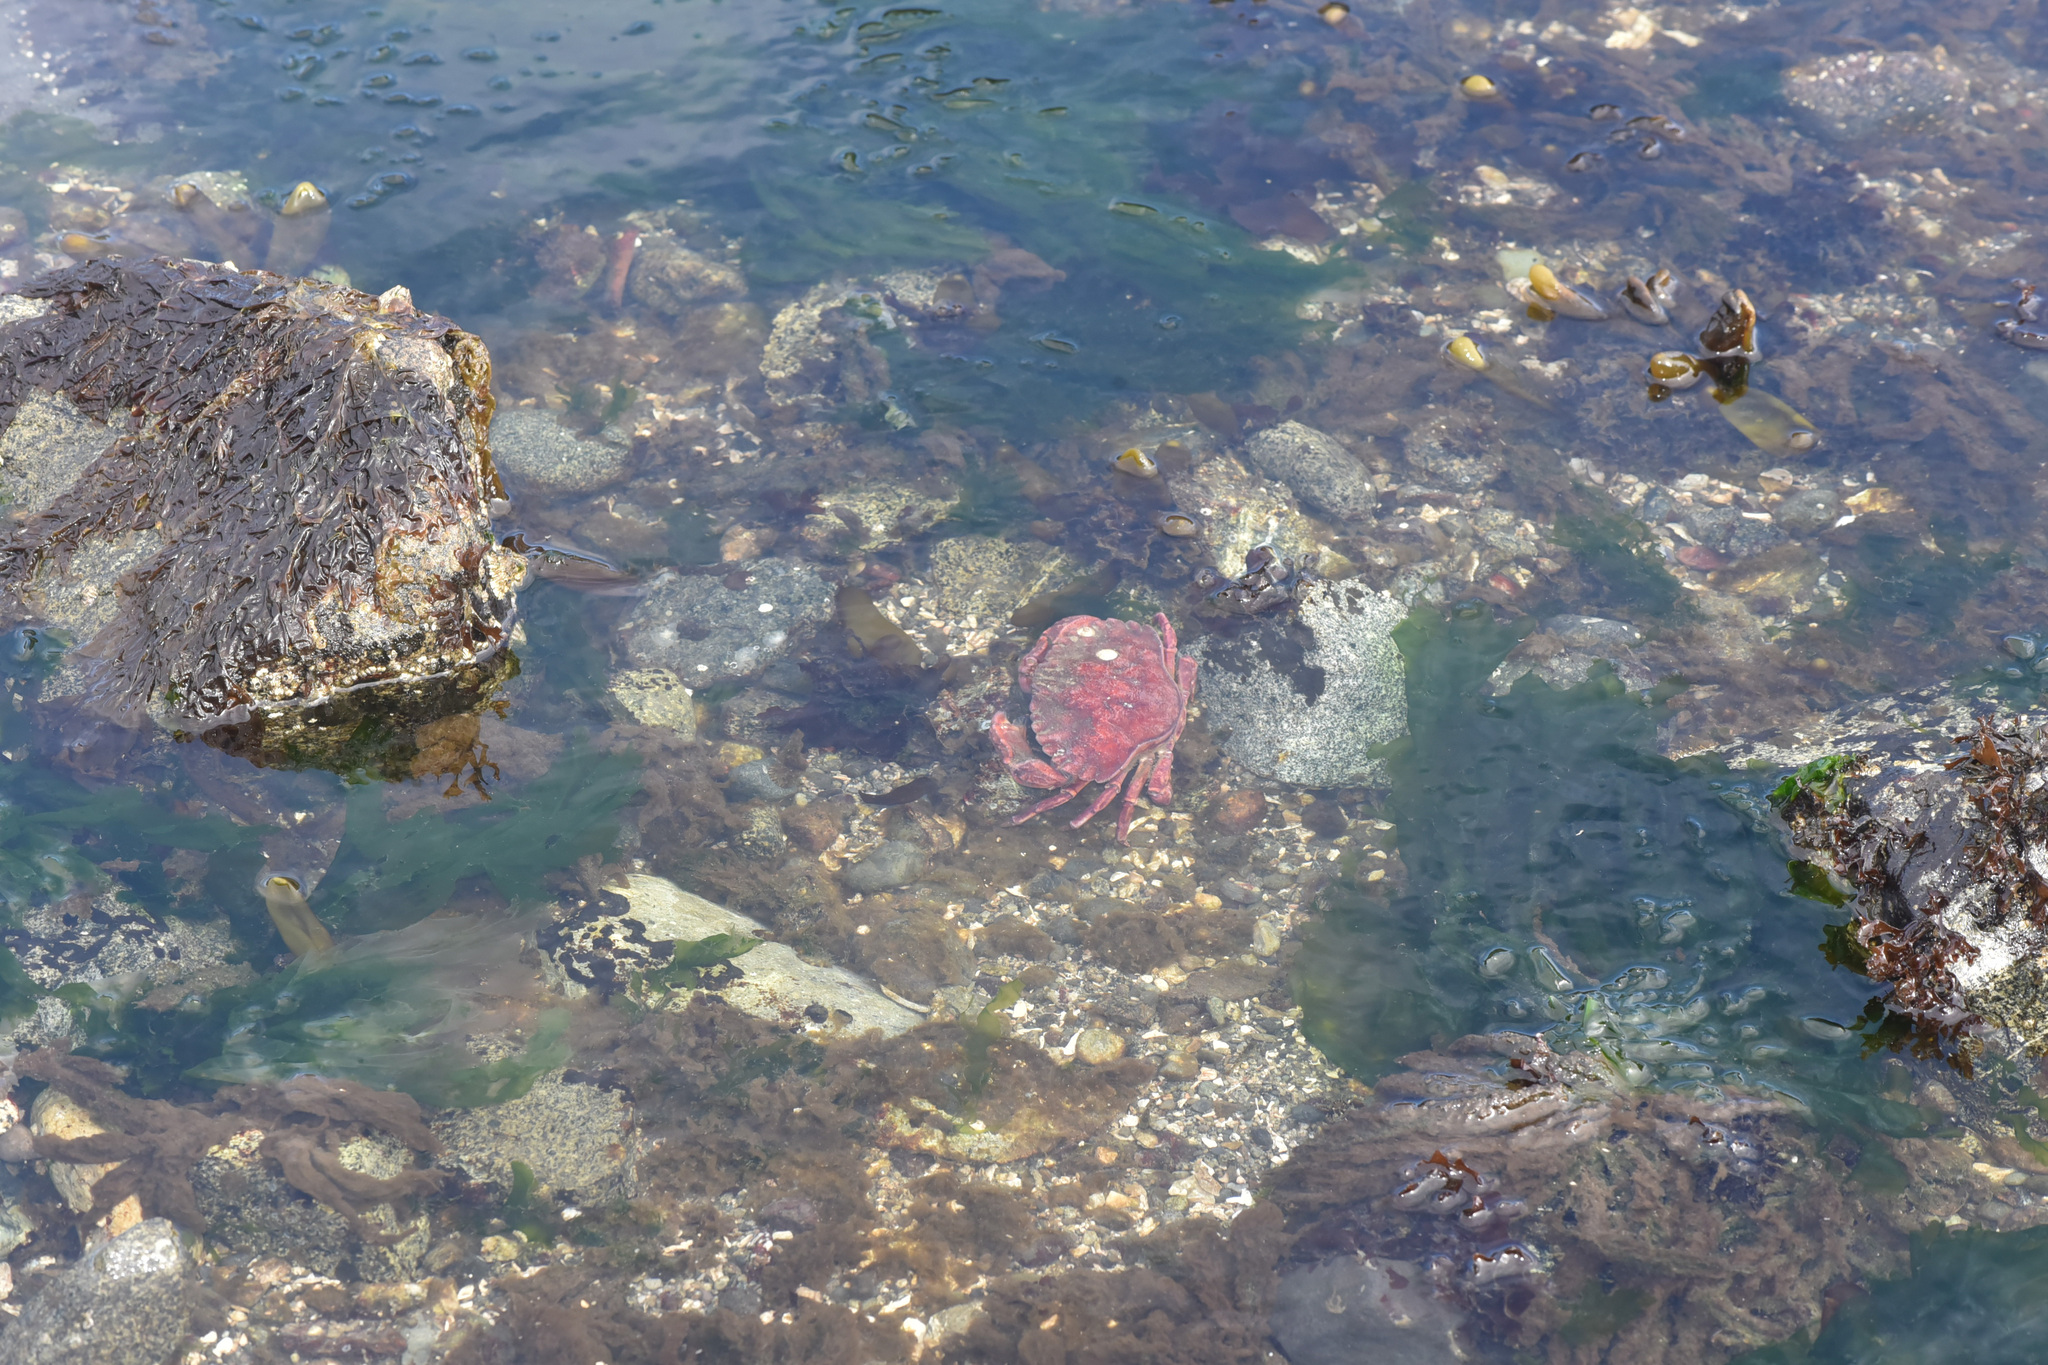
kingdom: Animalia
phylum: Arthropoda
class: Malacostraca
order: Decapoda
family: Cancridae
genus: Cancer
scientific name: Cancer productus
